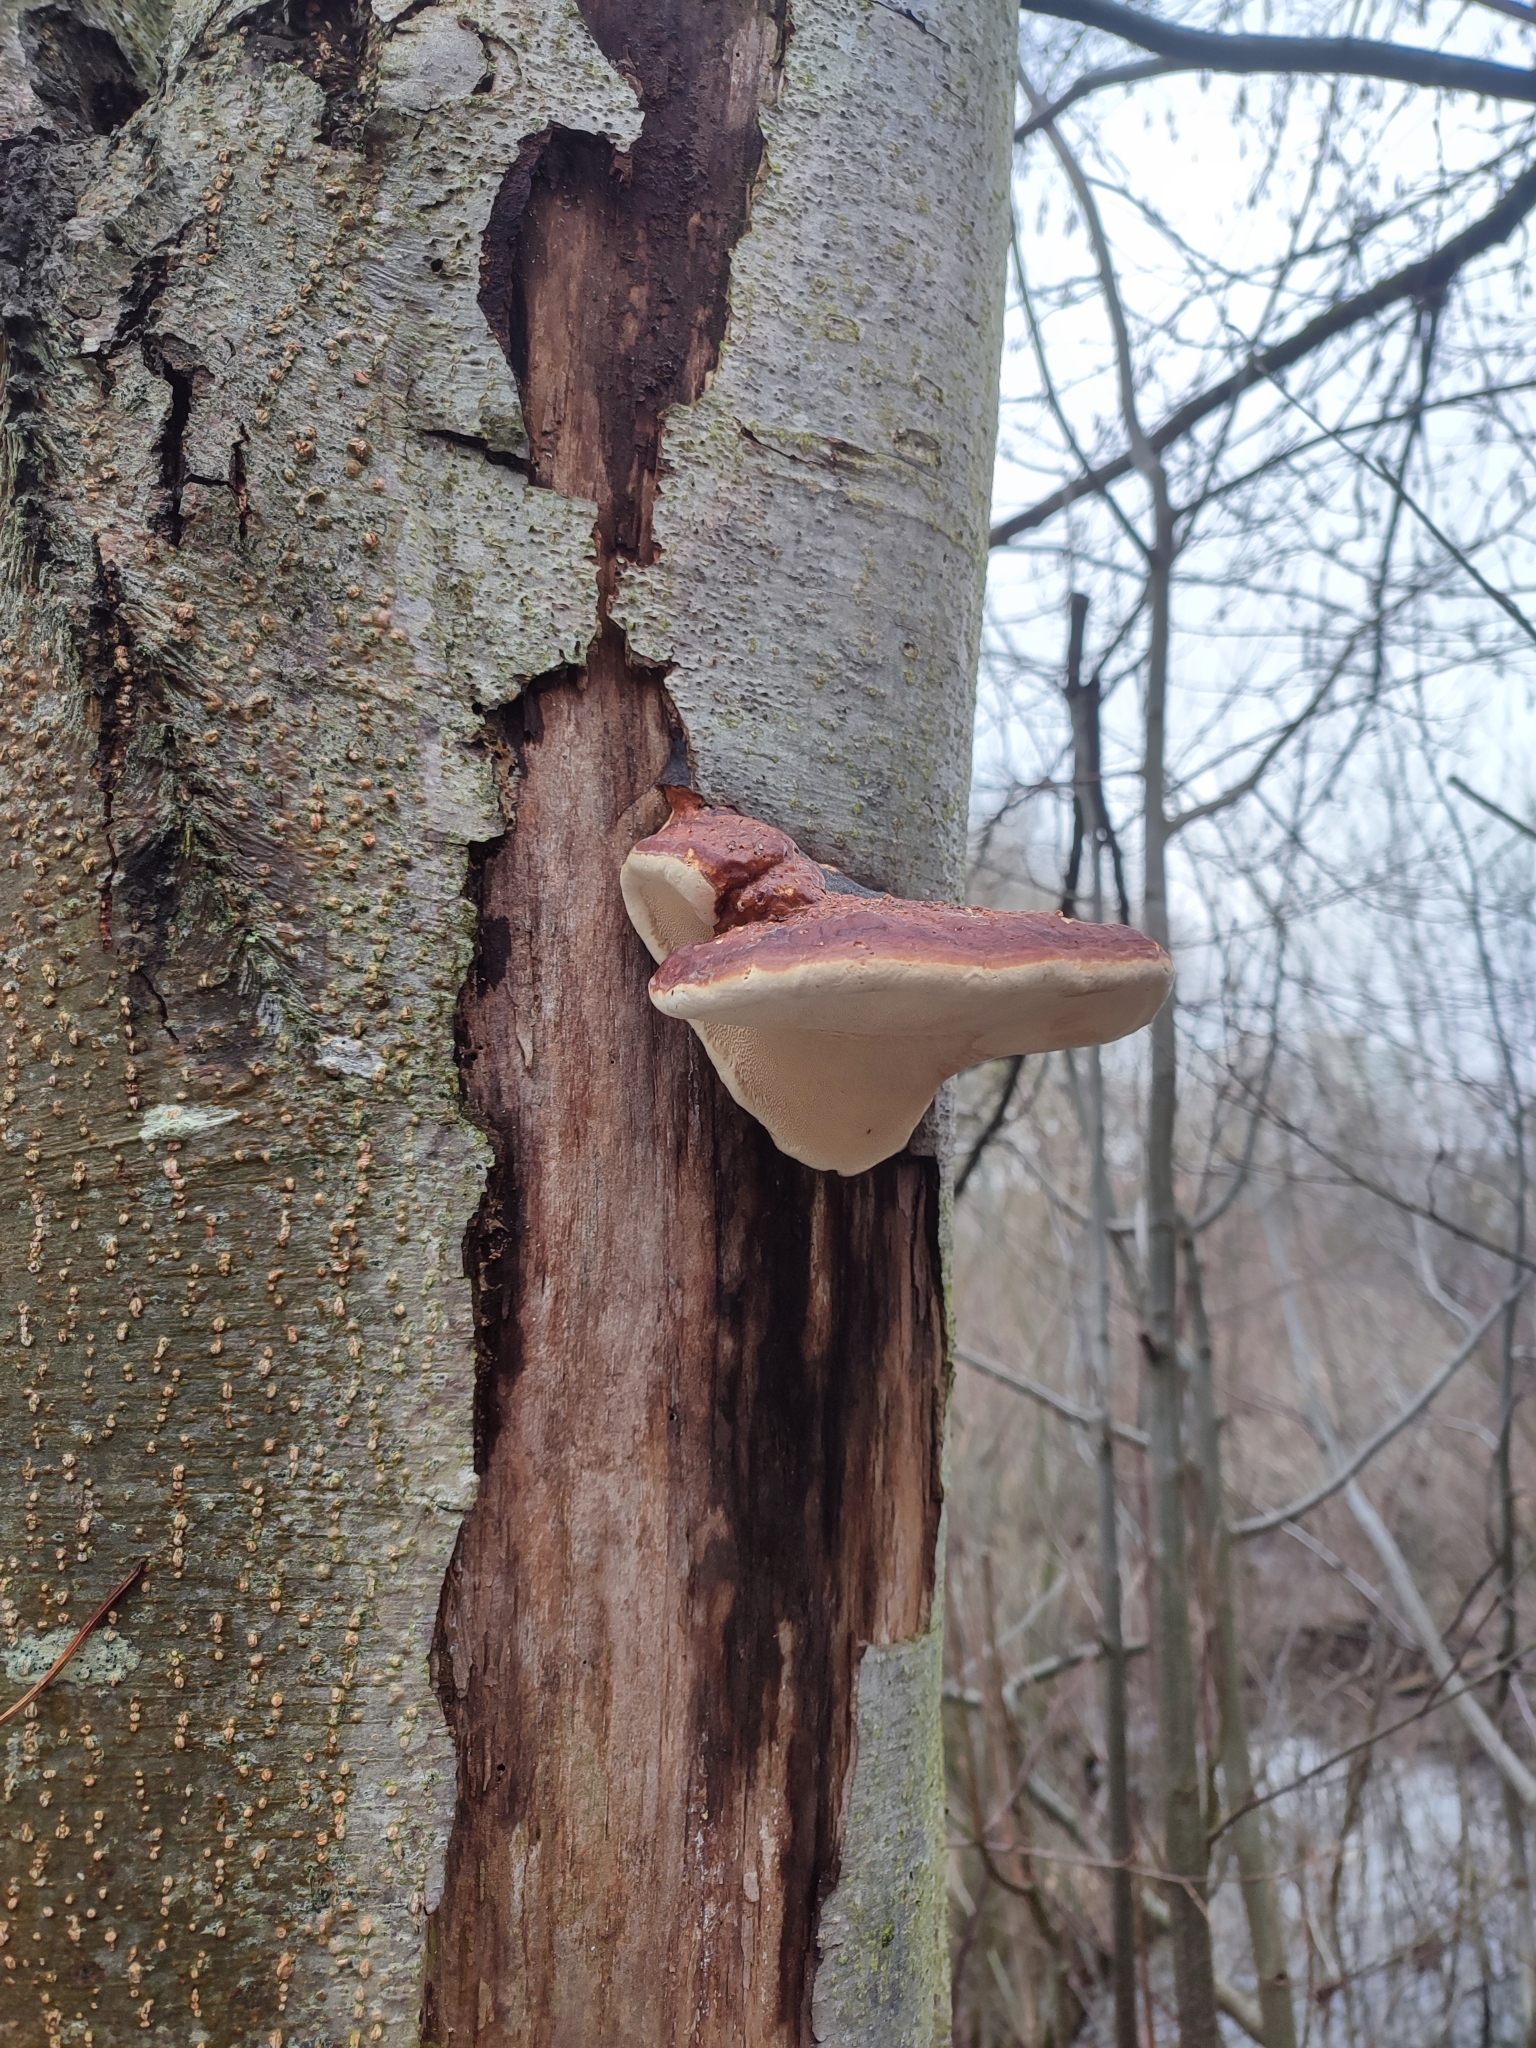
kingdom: Fungi
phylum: Basidiomycota
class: Agaricomycetes
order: Polyporales
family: Fomitopsidaceae
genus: Fomitopsis
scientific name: Fomitopsis pinicola
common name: Red-belted bracket
